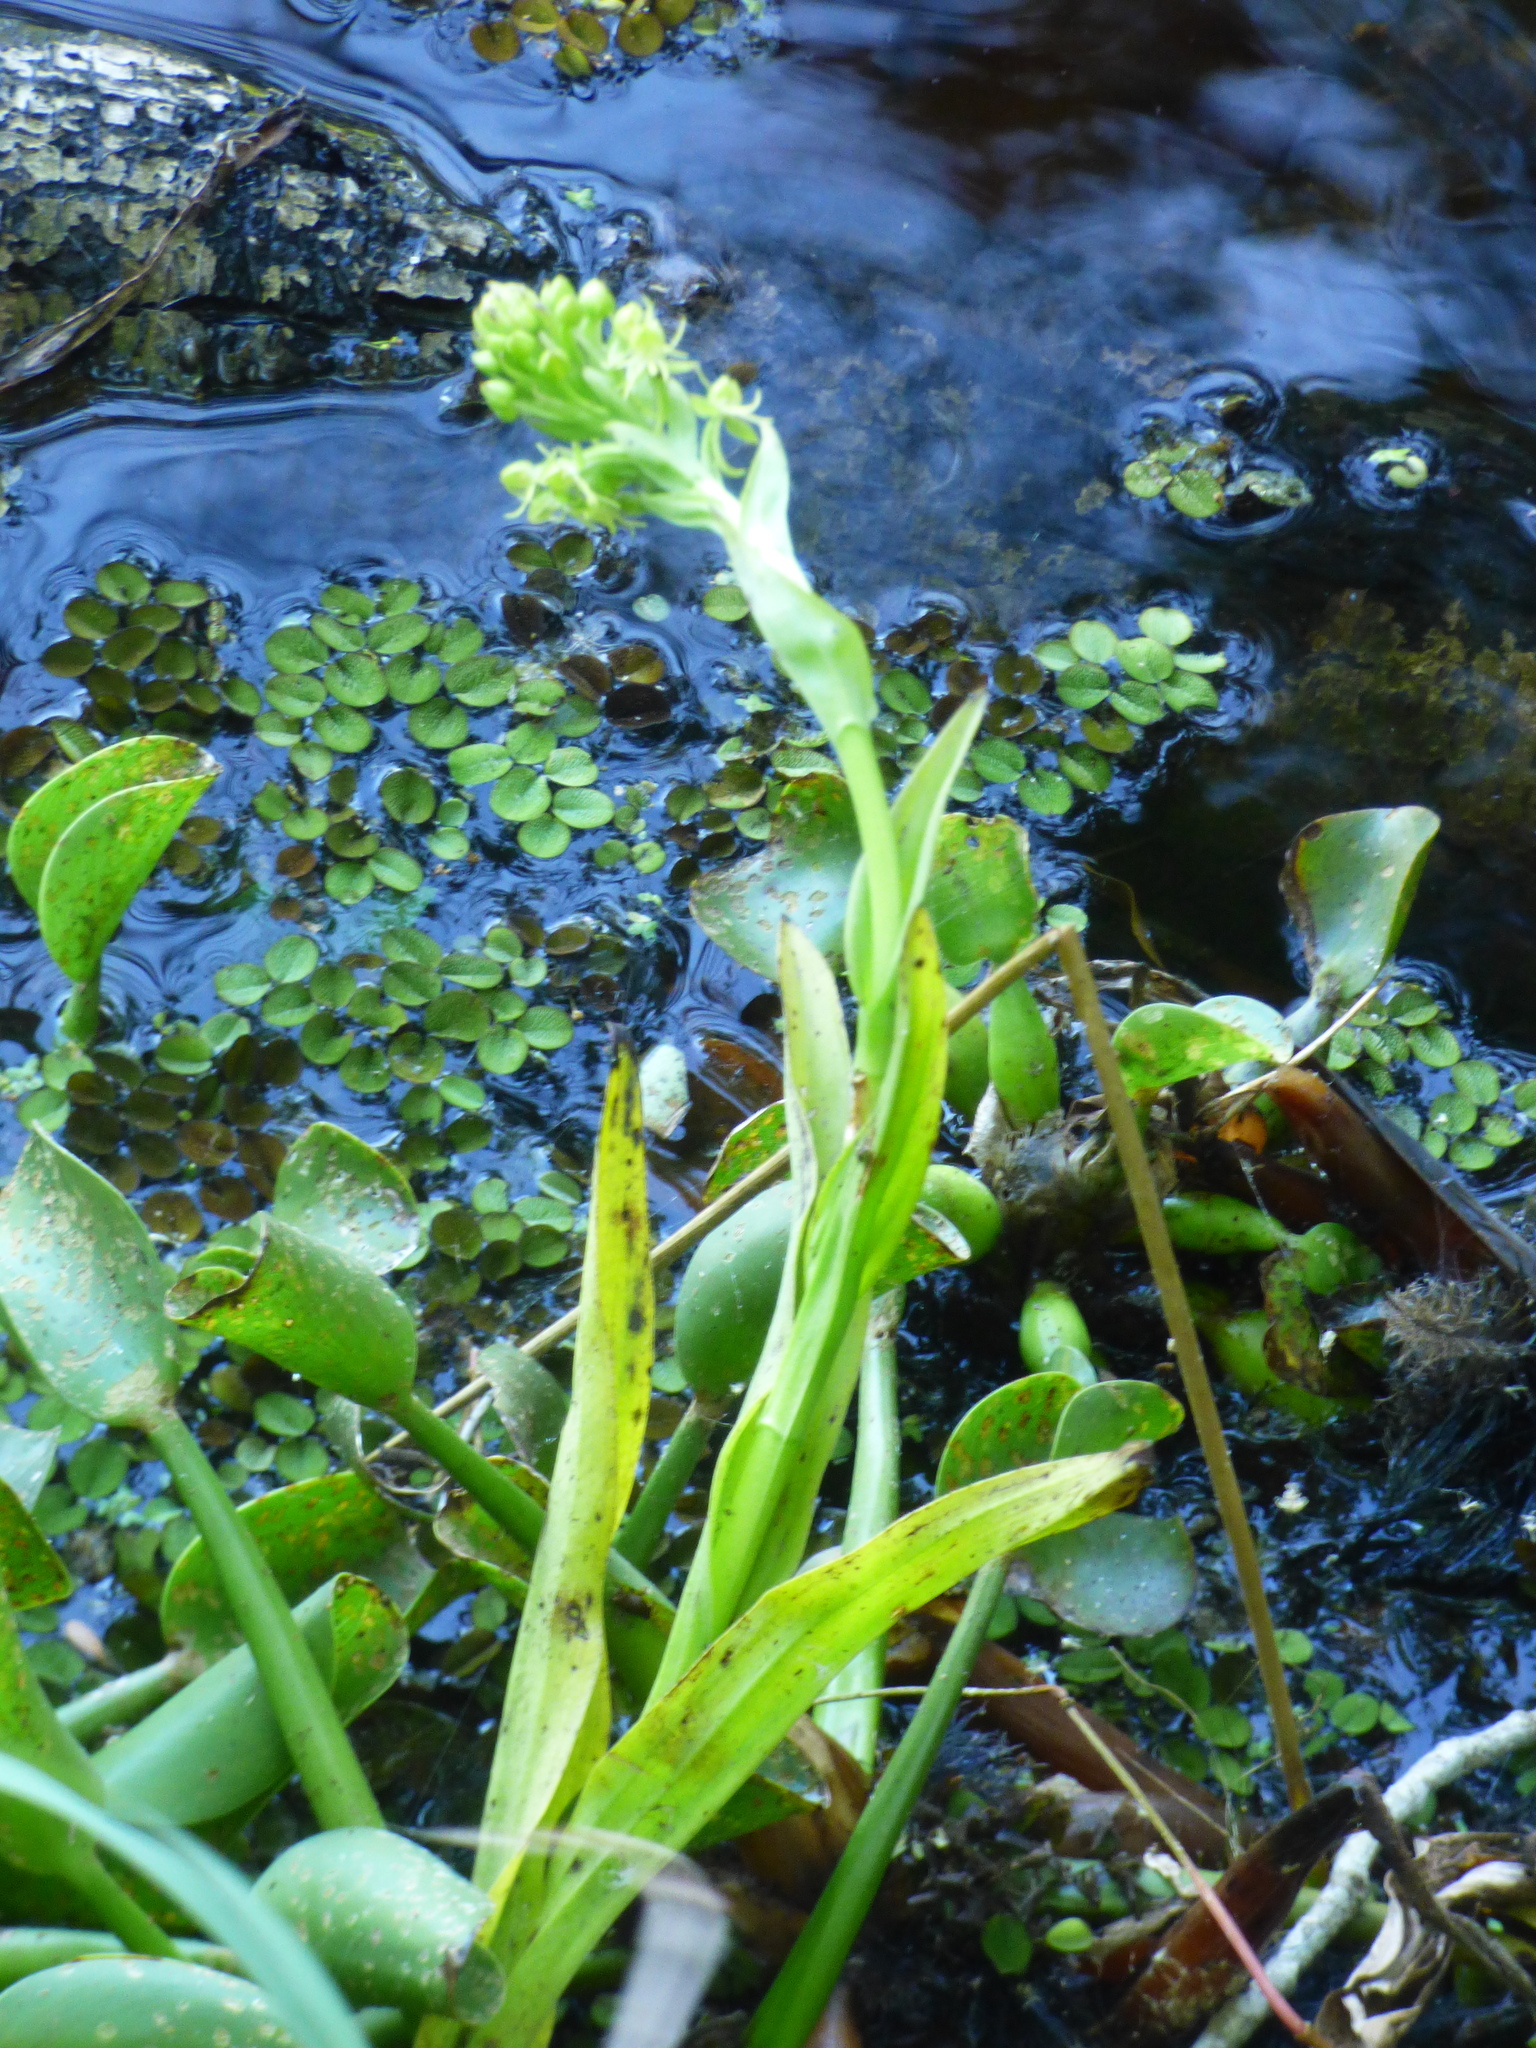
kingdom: Plantae
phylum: Tracheophyta
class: Liliopsida
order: Asparagales
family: Orchidaceae
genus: Habenaria
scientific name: Habenaria repens
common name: Water orchid
